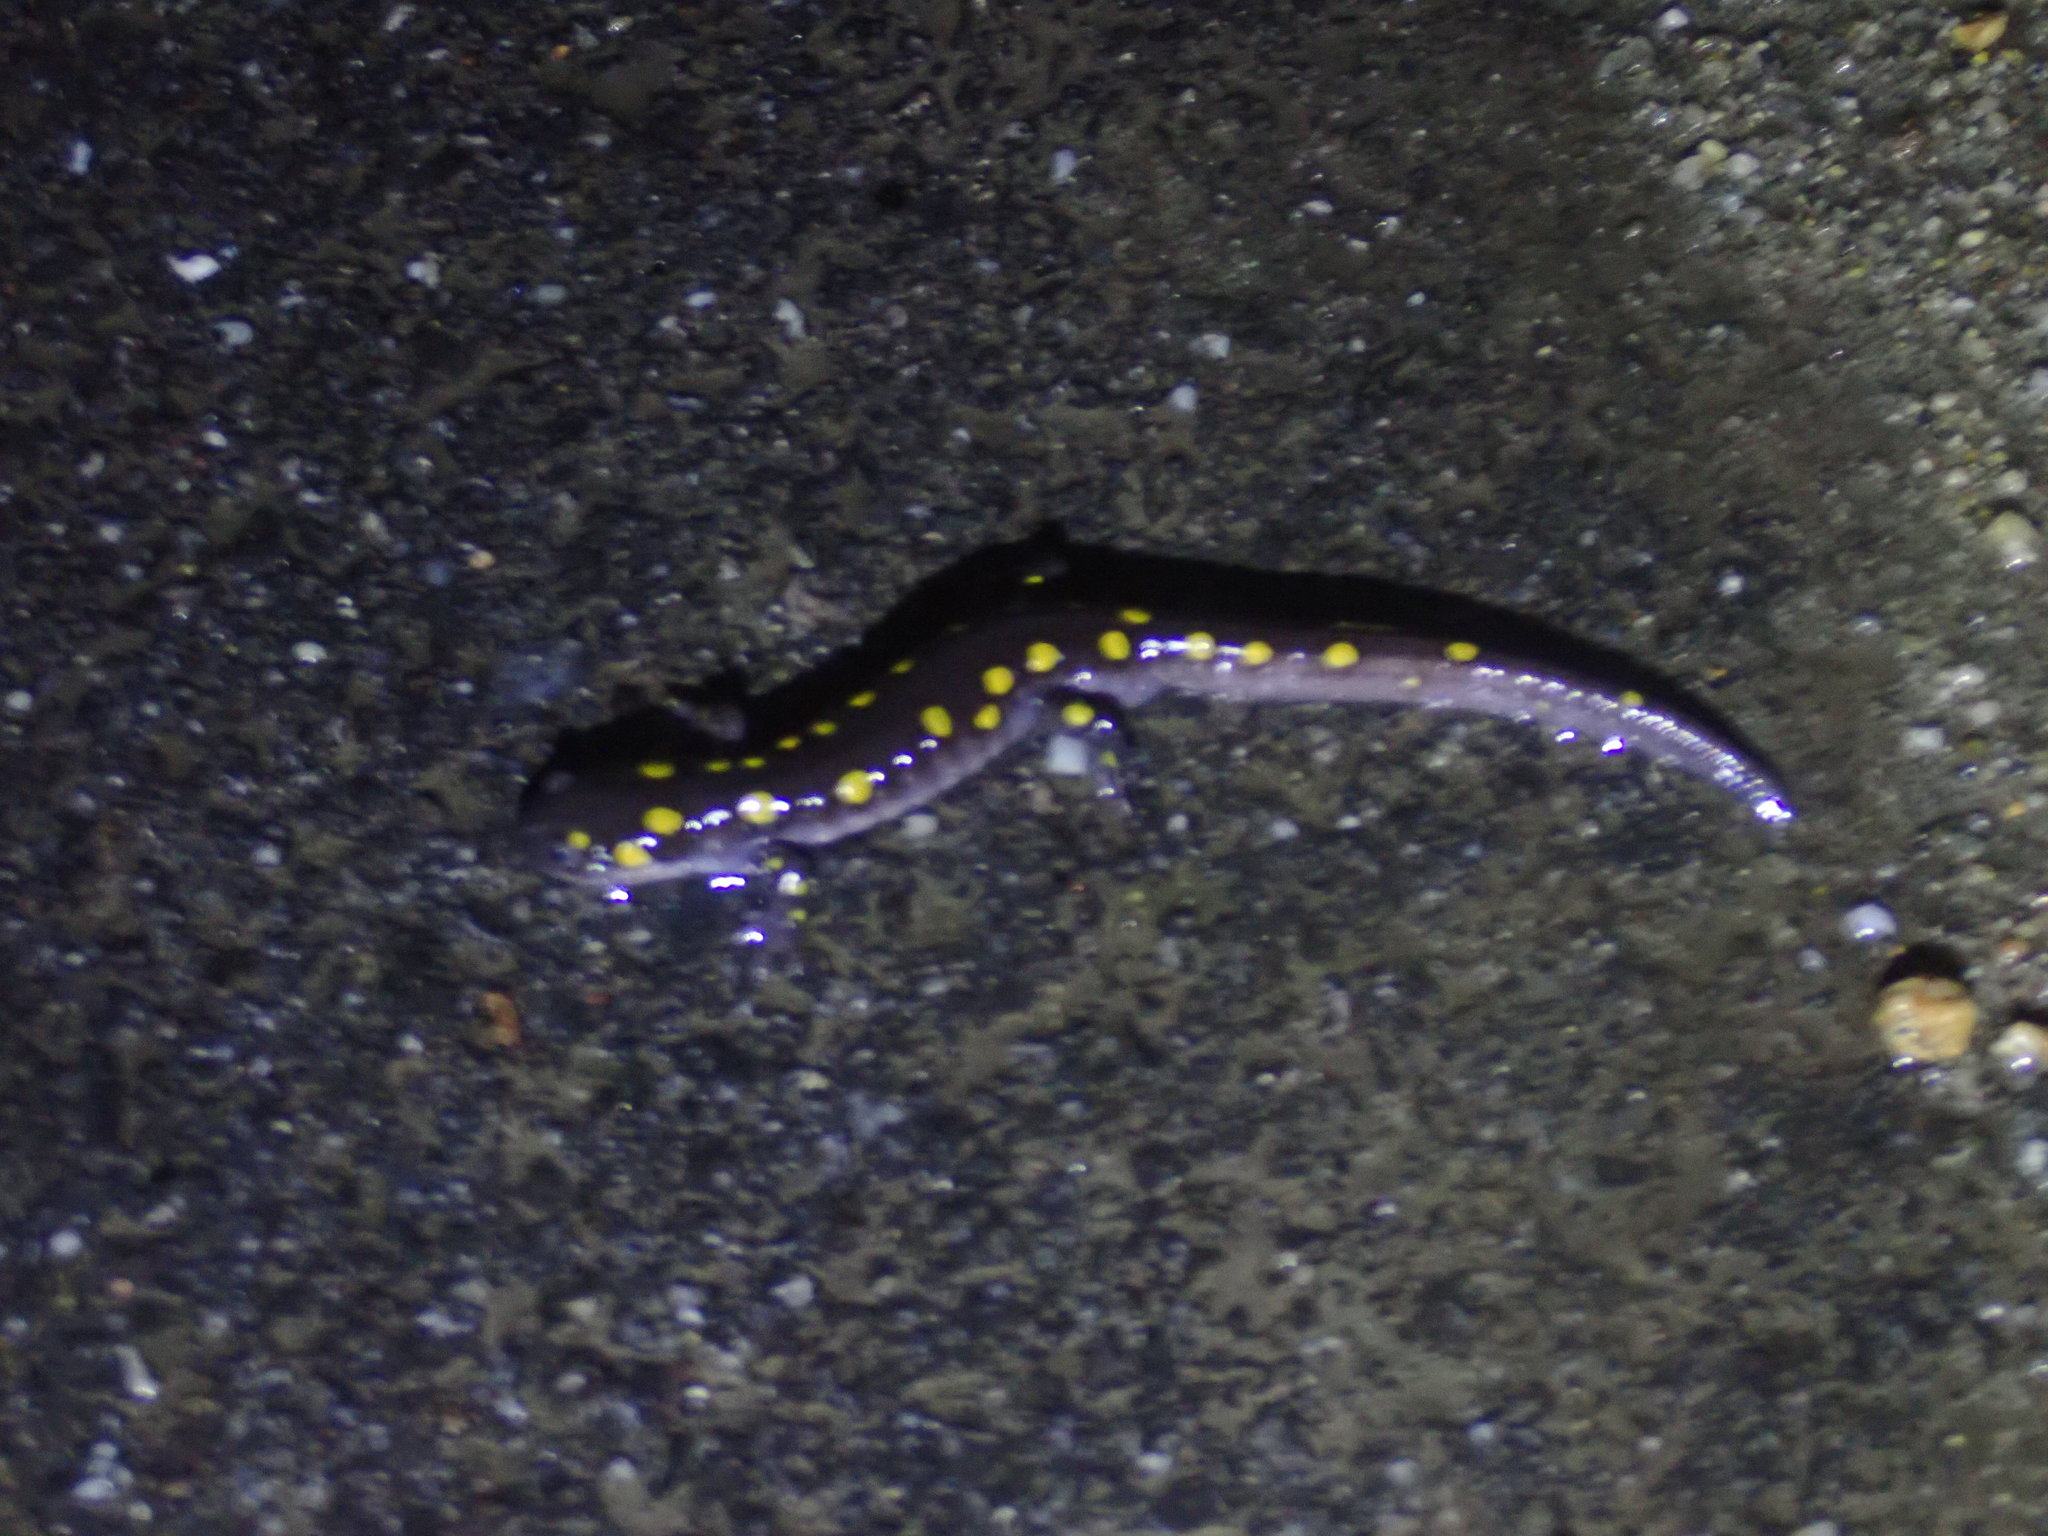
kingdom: Animalia
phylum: Chordata
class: Amphibia
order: Caudata
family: Ambystomatidae
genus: Ambystoma
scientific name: Ambystoma maculatum
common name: Spotted salamander
